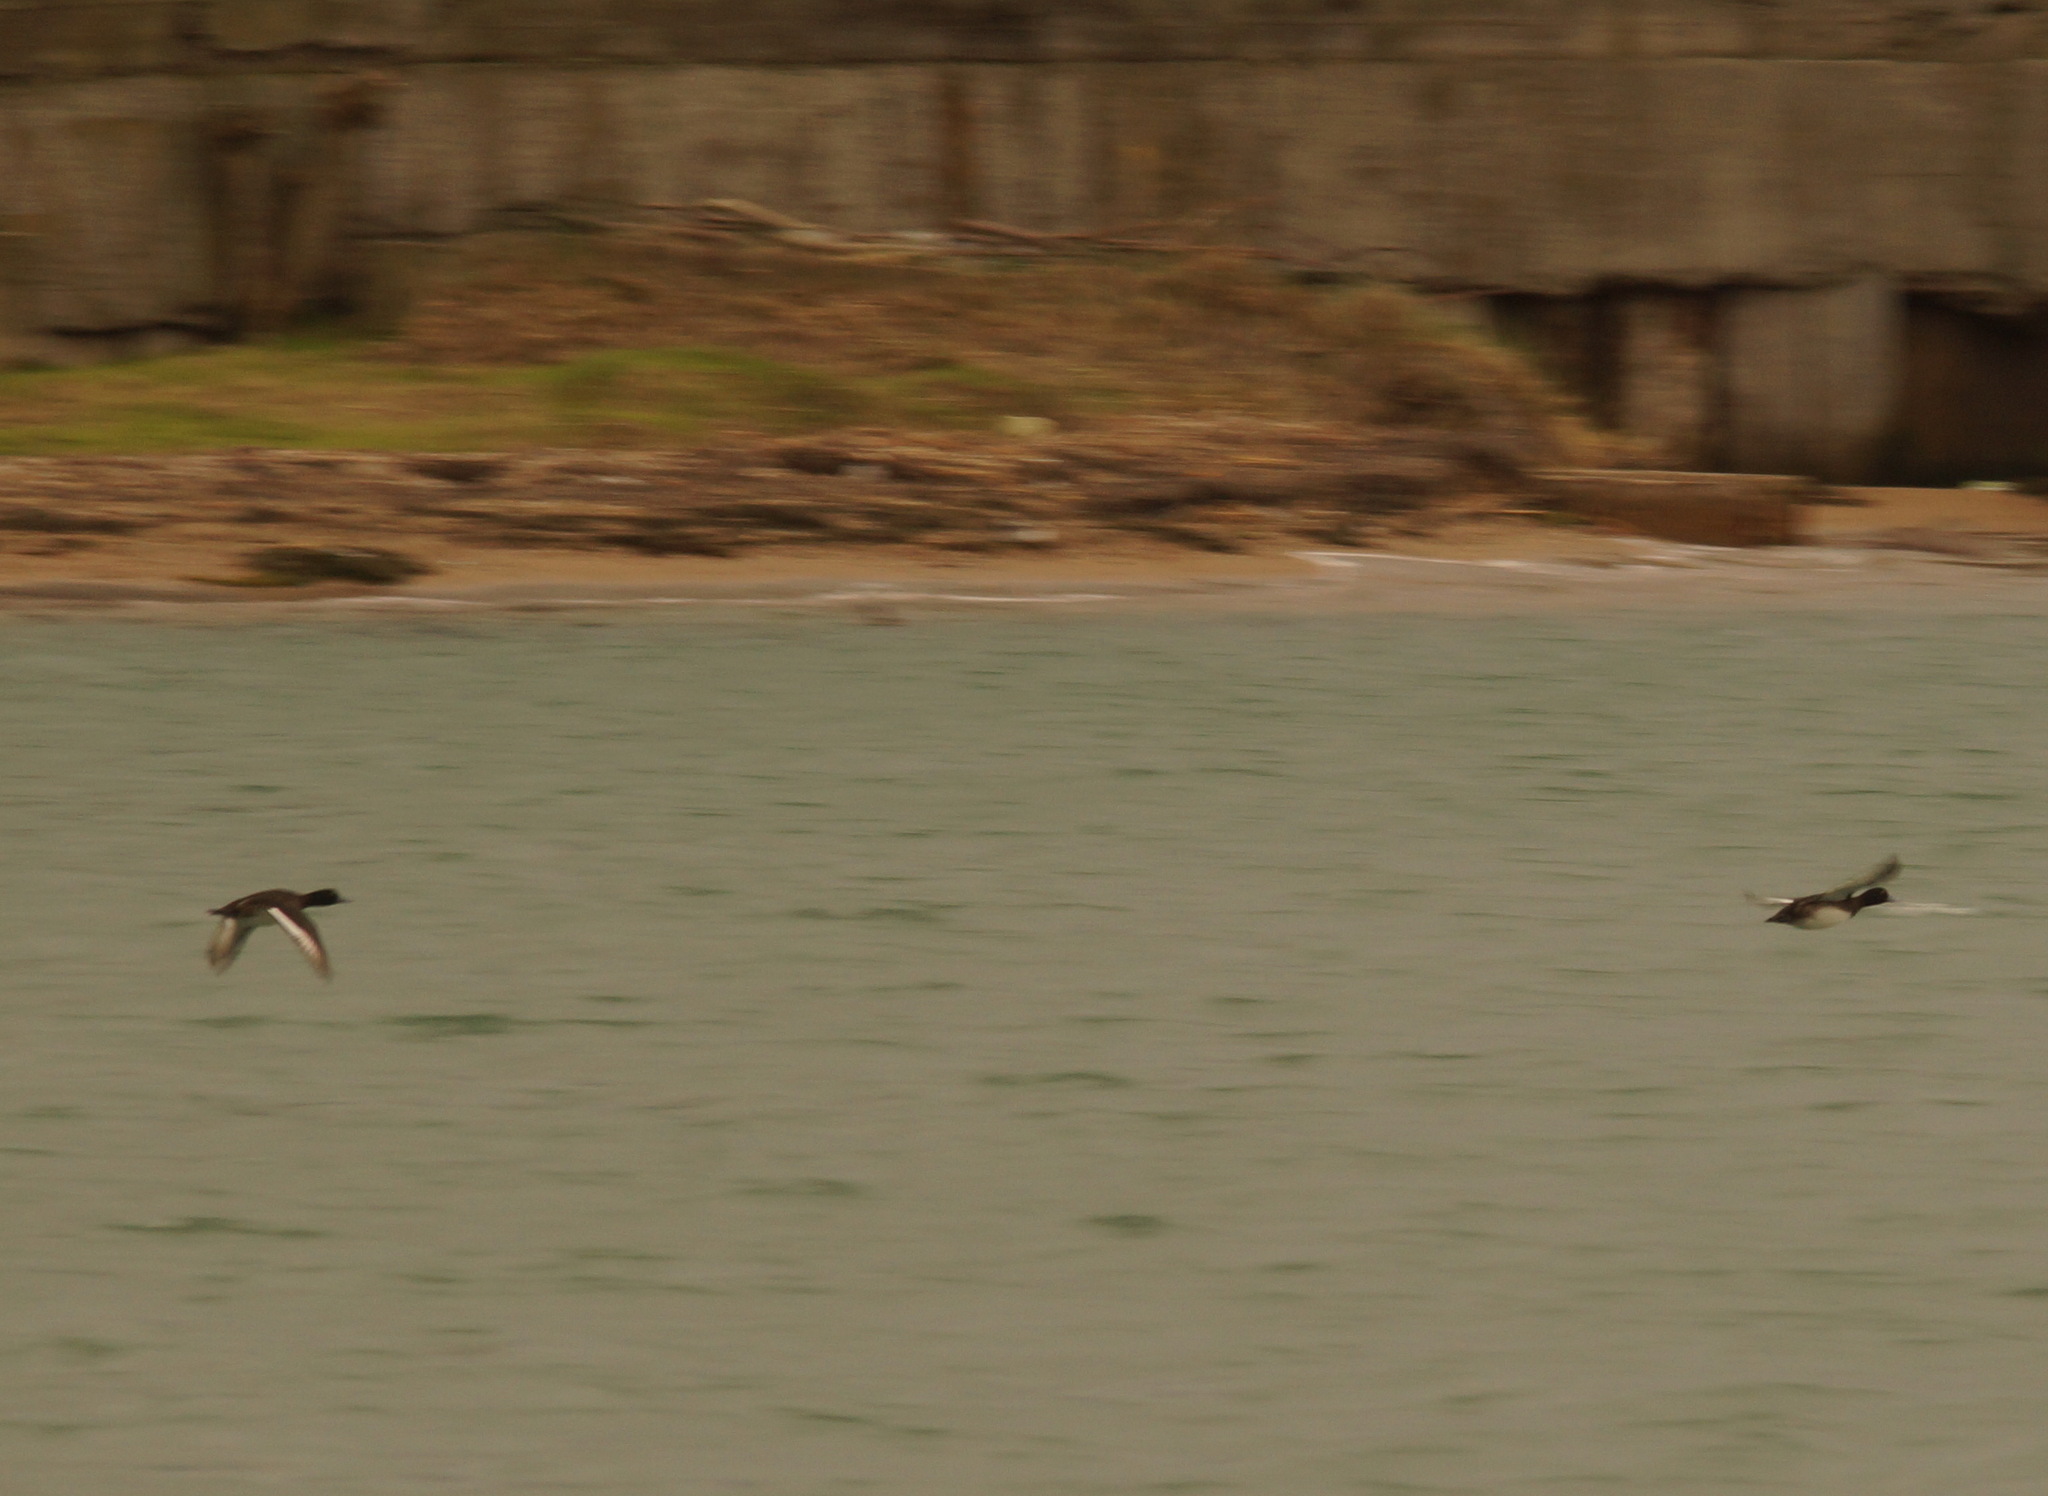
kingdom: Animalia
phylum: Chordata
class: Aves
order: Anseriformes
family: Anatidae
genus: Aythya
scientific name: Aythya fuligula
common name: Tufted duck
